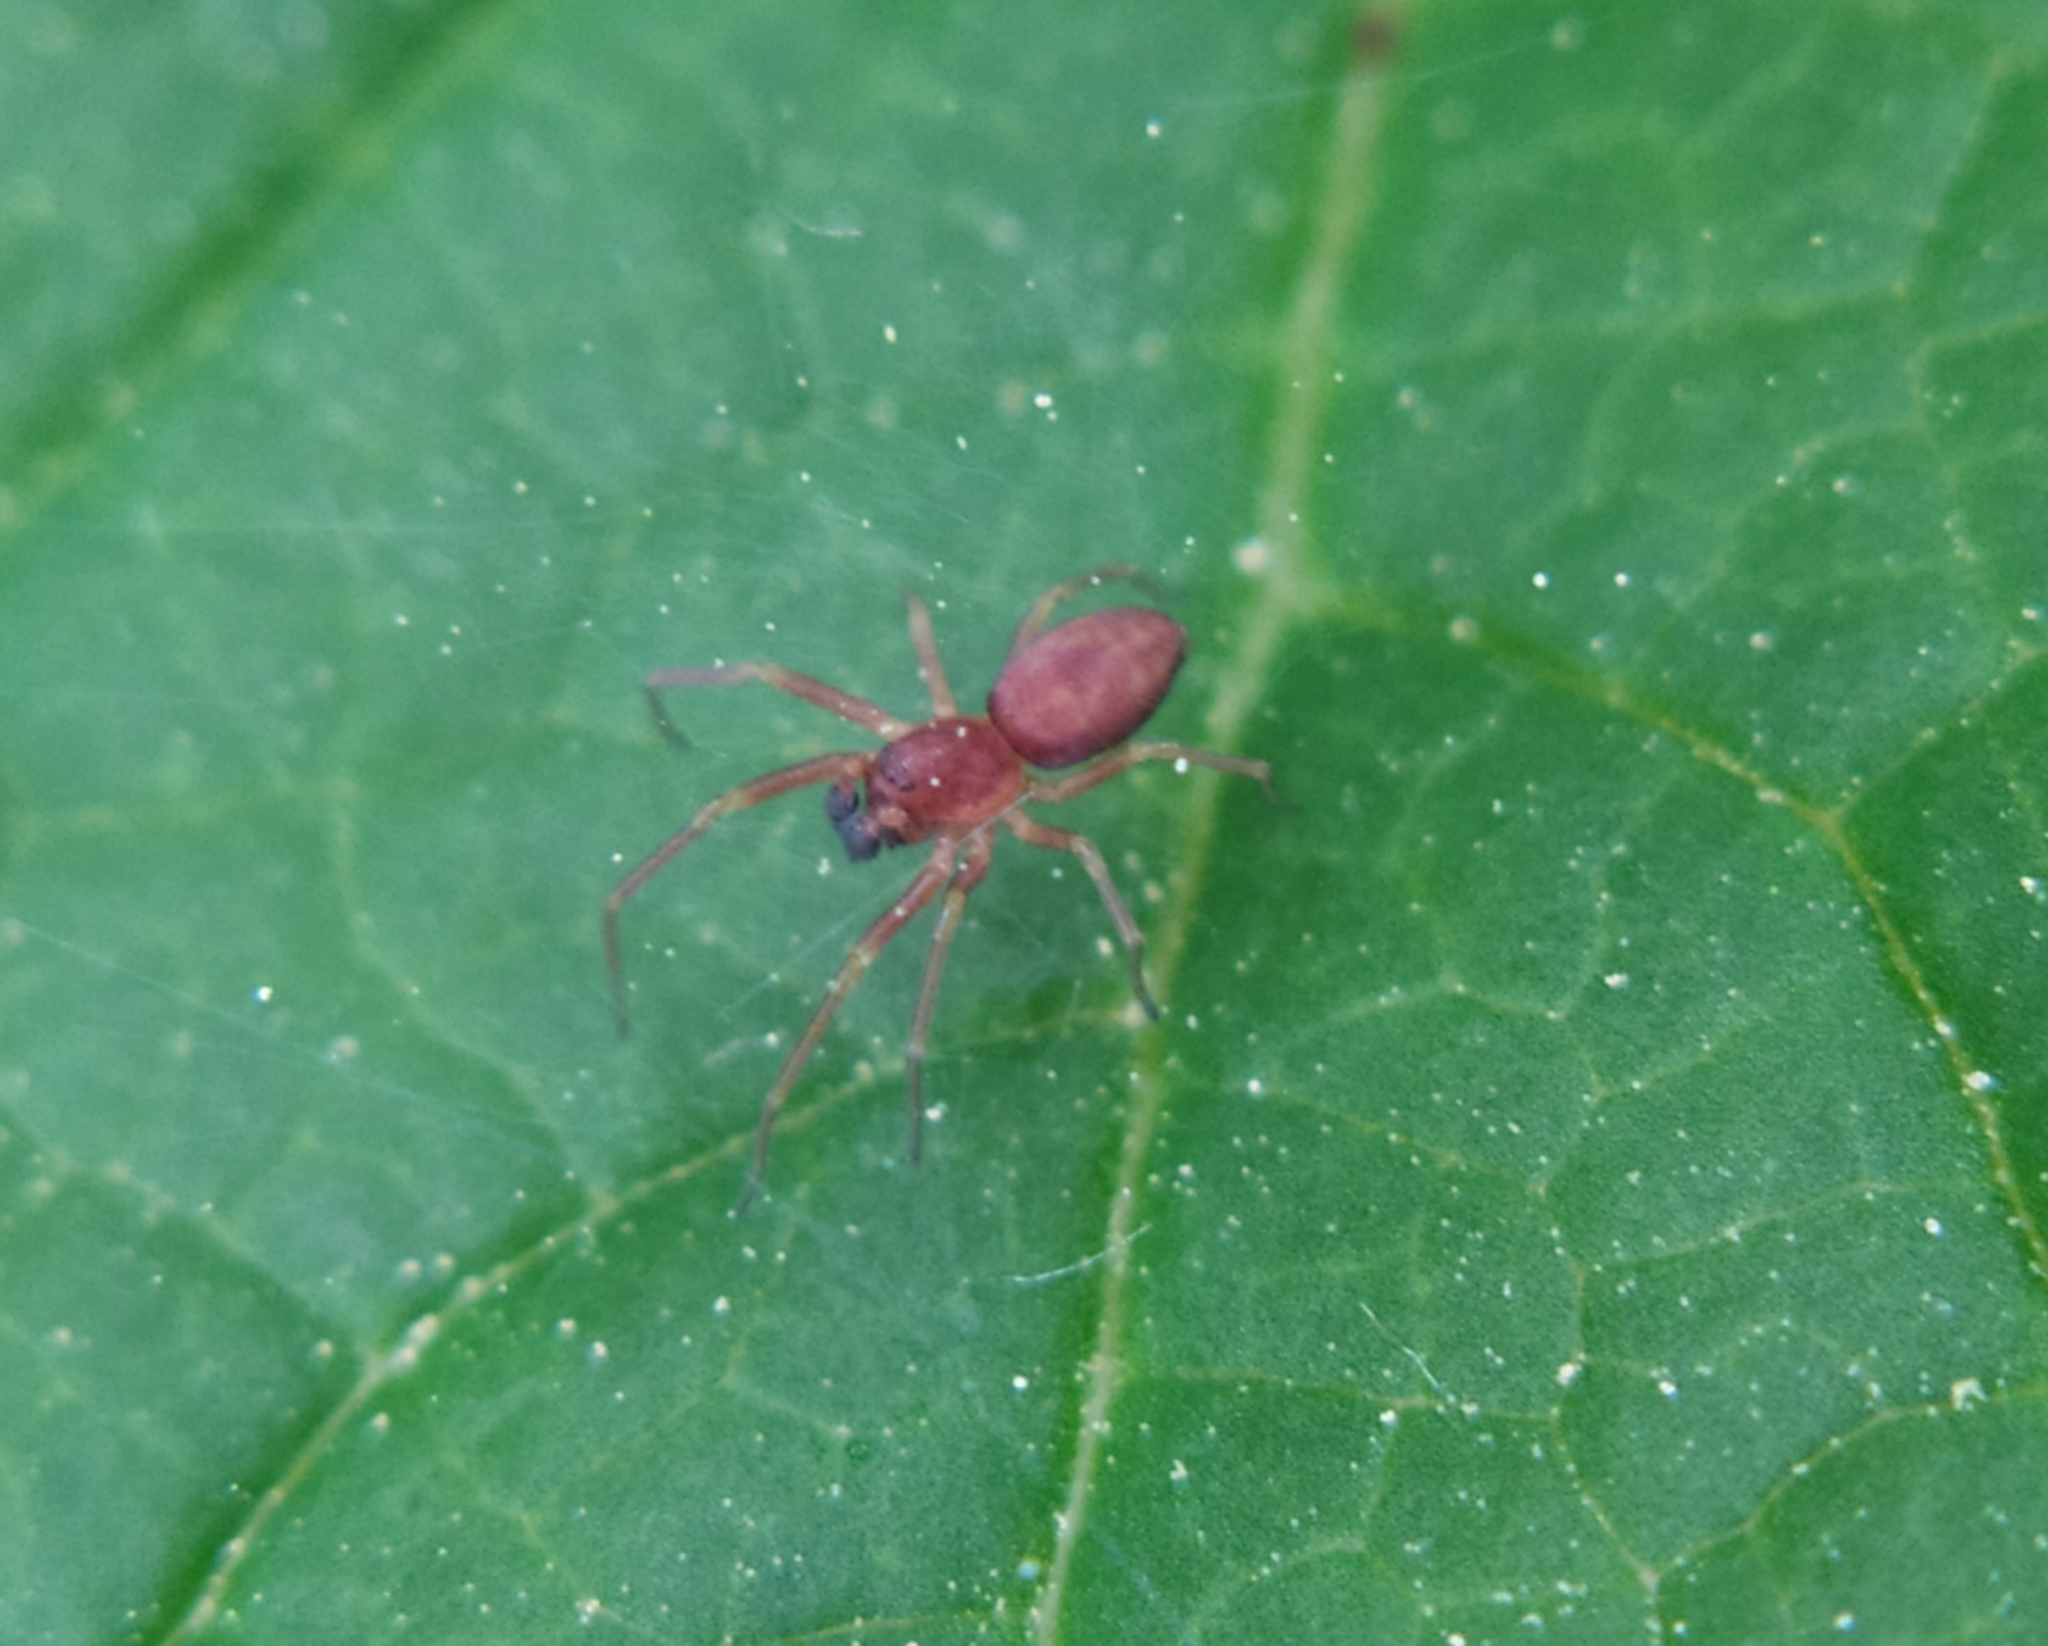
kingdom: Animalia
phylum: Arthropoda
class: Arachnida
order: Araneae
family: Dictynidae
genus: Nigma
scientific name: Nigma flavescens
